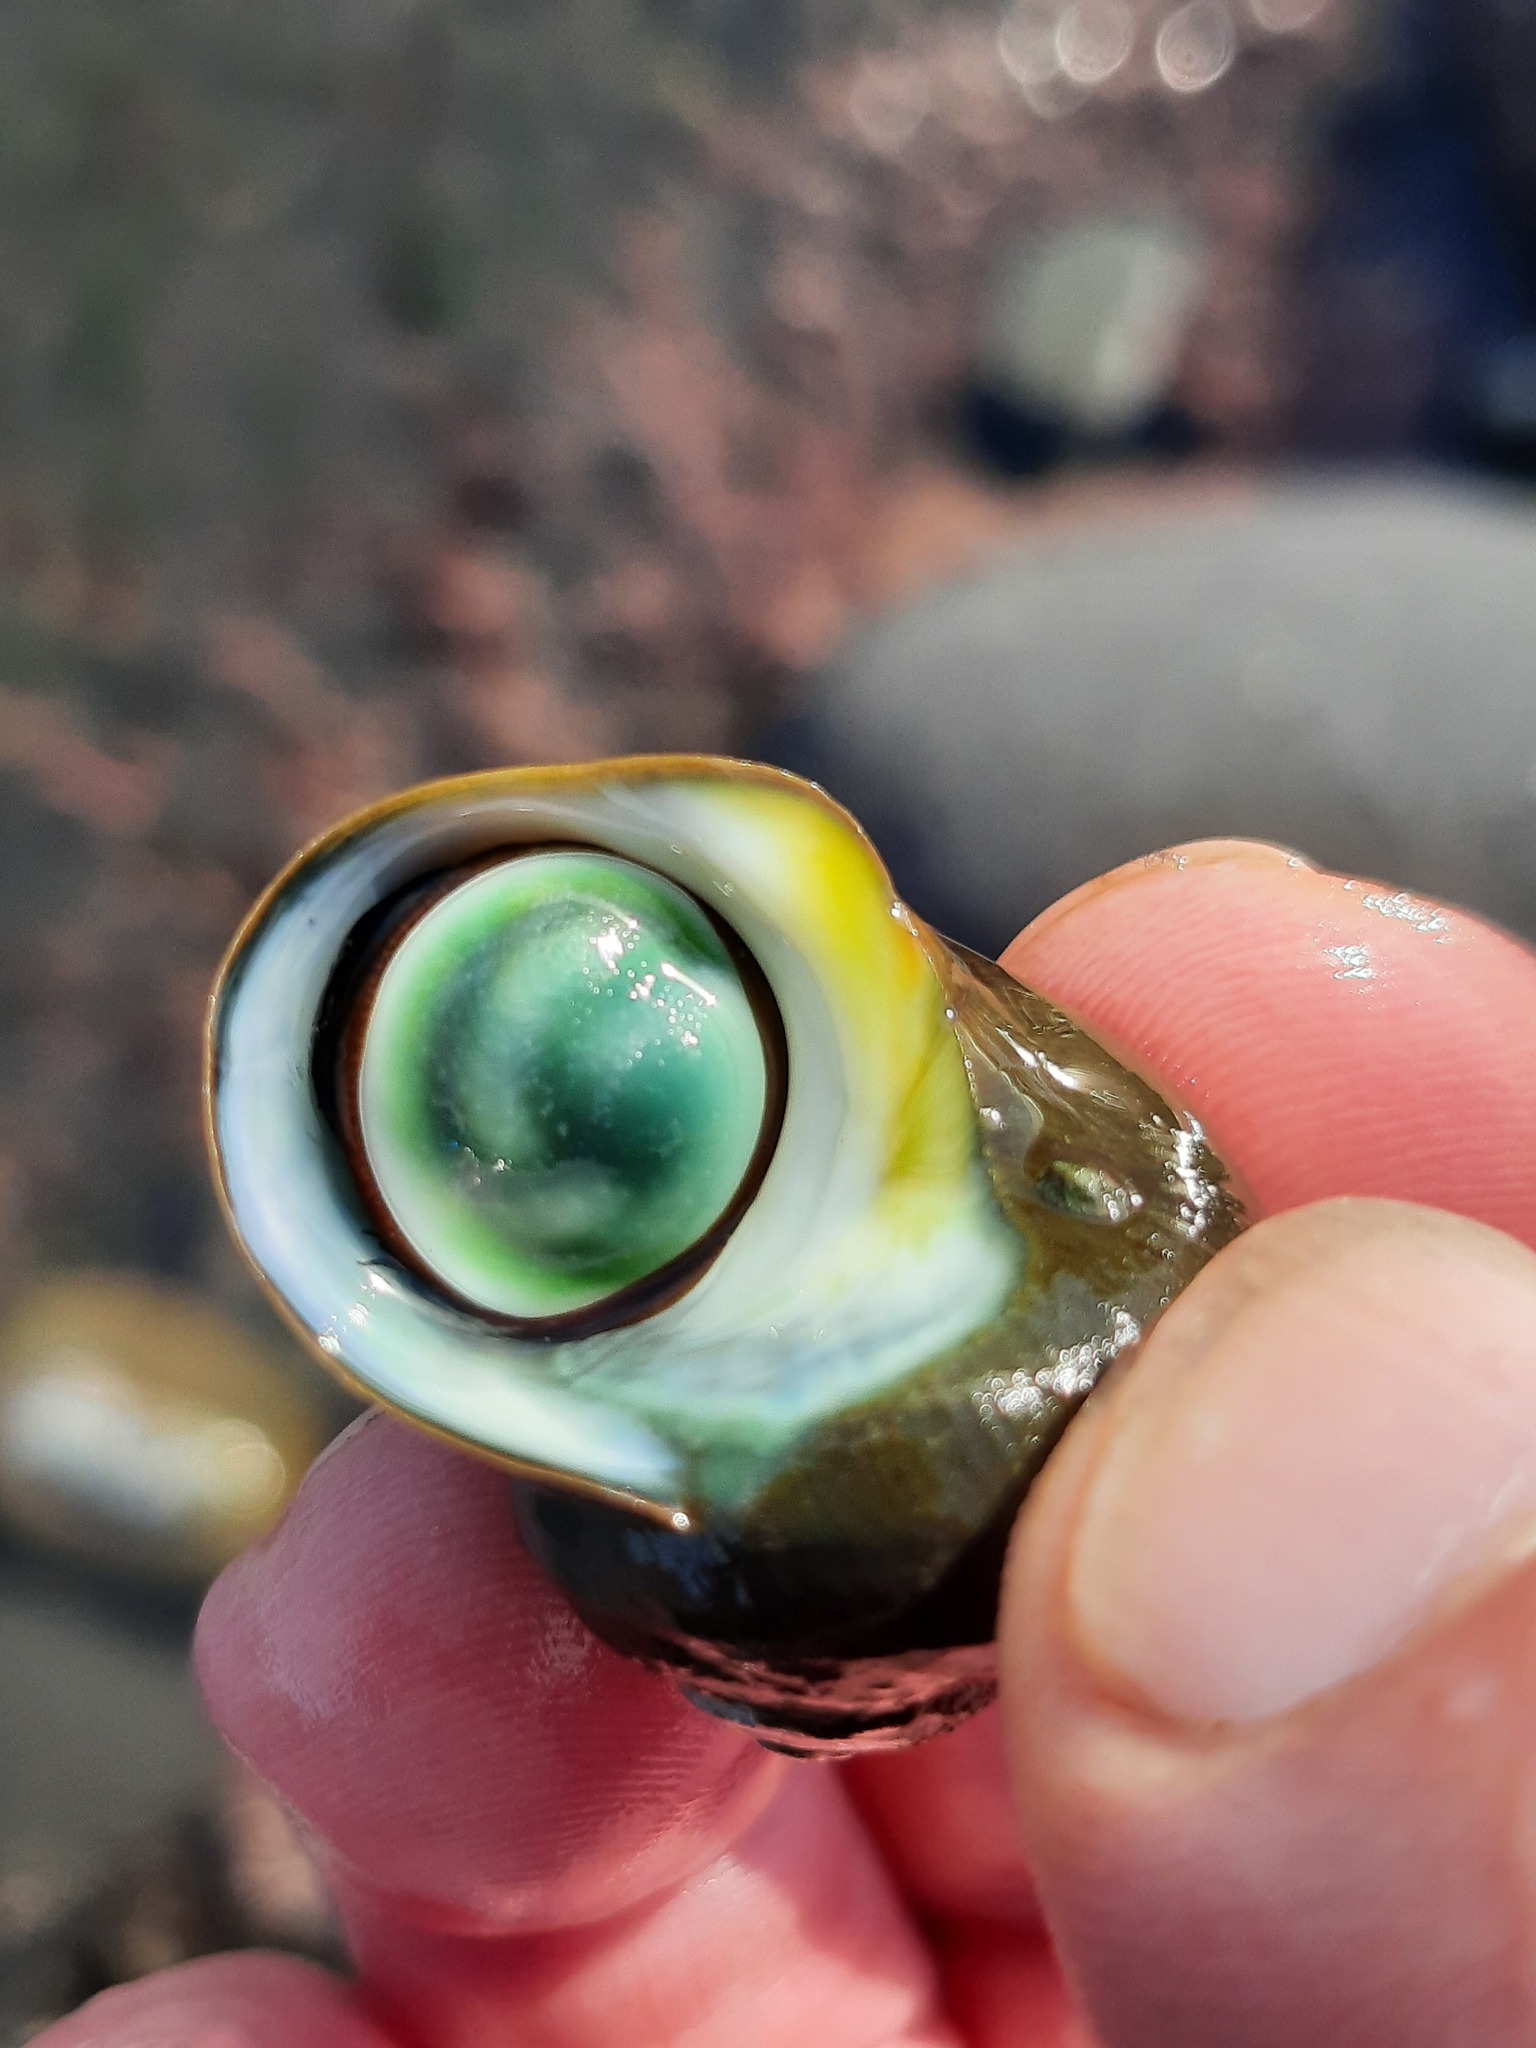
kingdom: Animalia
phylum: Mollusca
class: Gastropoda
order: Trochida
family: Turbinidae
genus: Lunella
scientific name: Lunella smaragda
